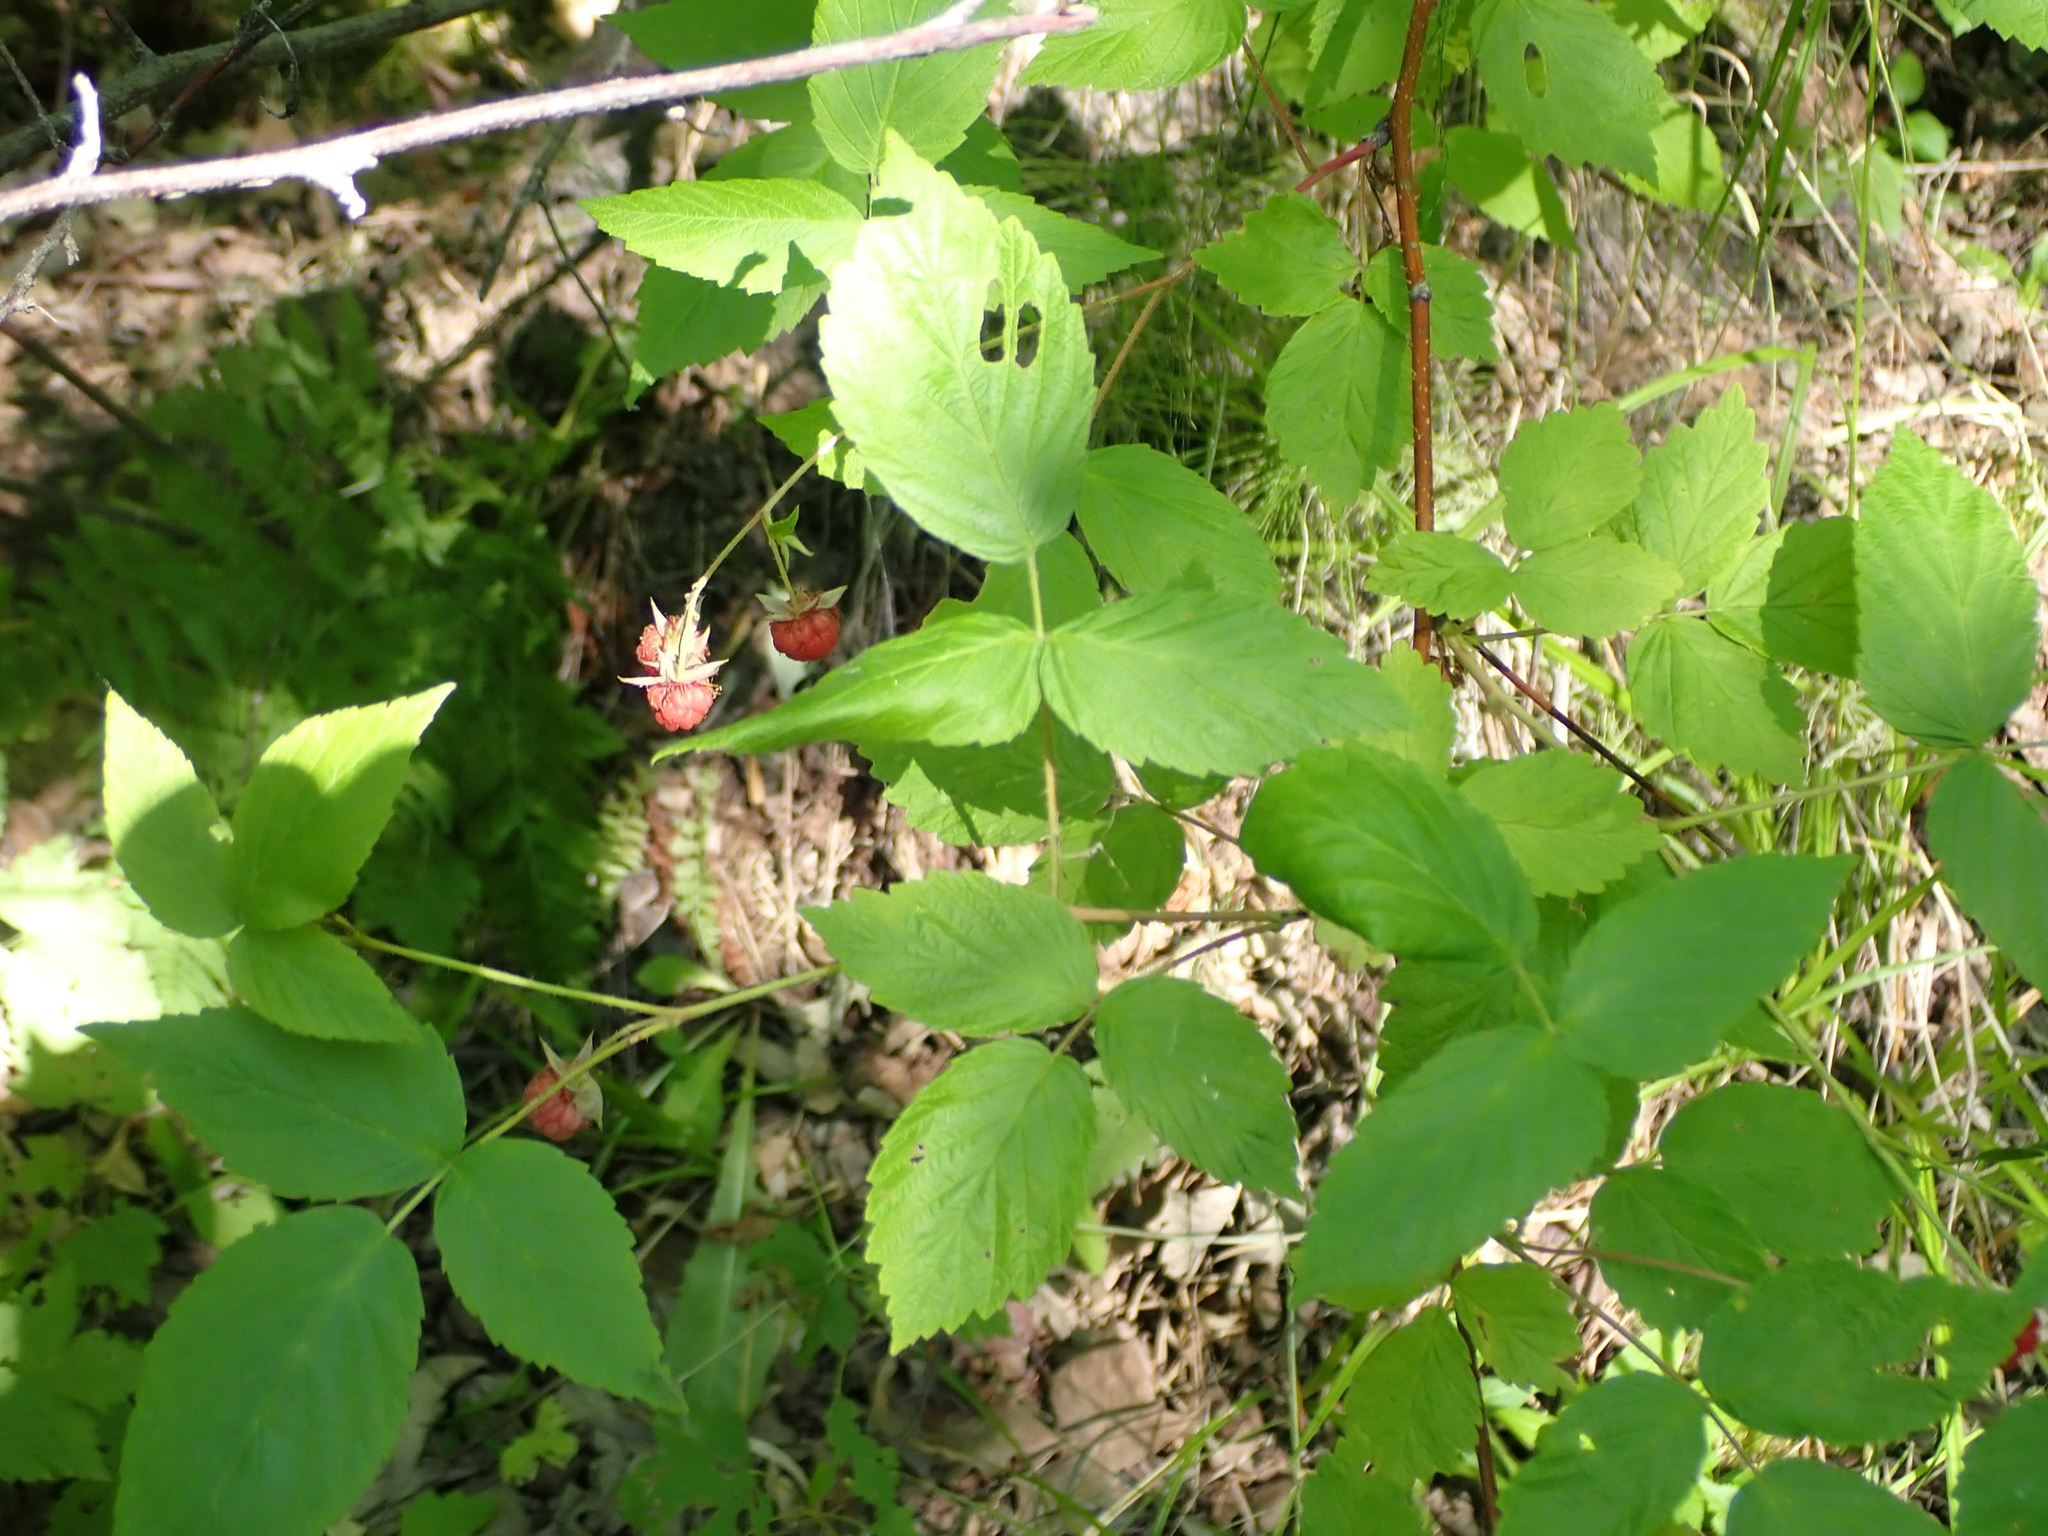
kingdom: Plantae
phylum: Tracheophyta
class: Magnoliopsida
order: Rosales
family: Rosaceae
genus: Rubus
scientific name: Rubus idaeus
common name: Raspberry
